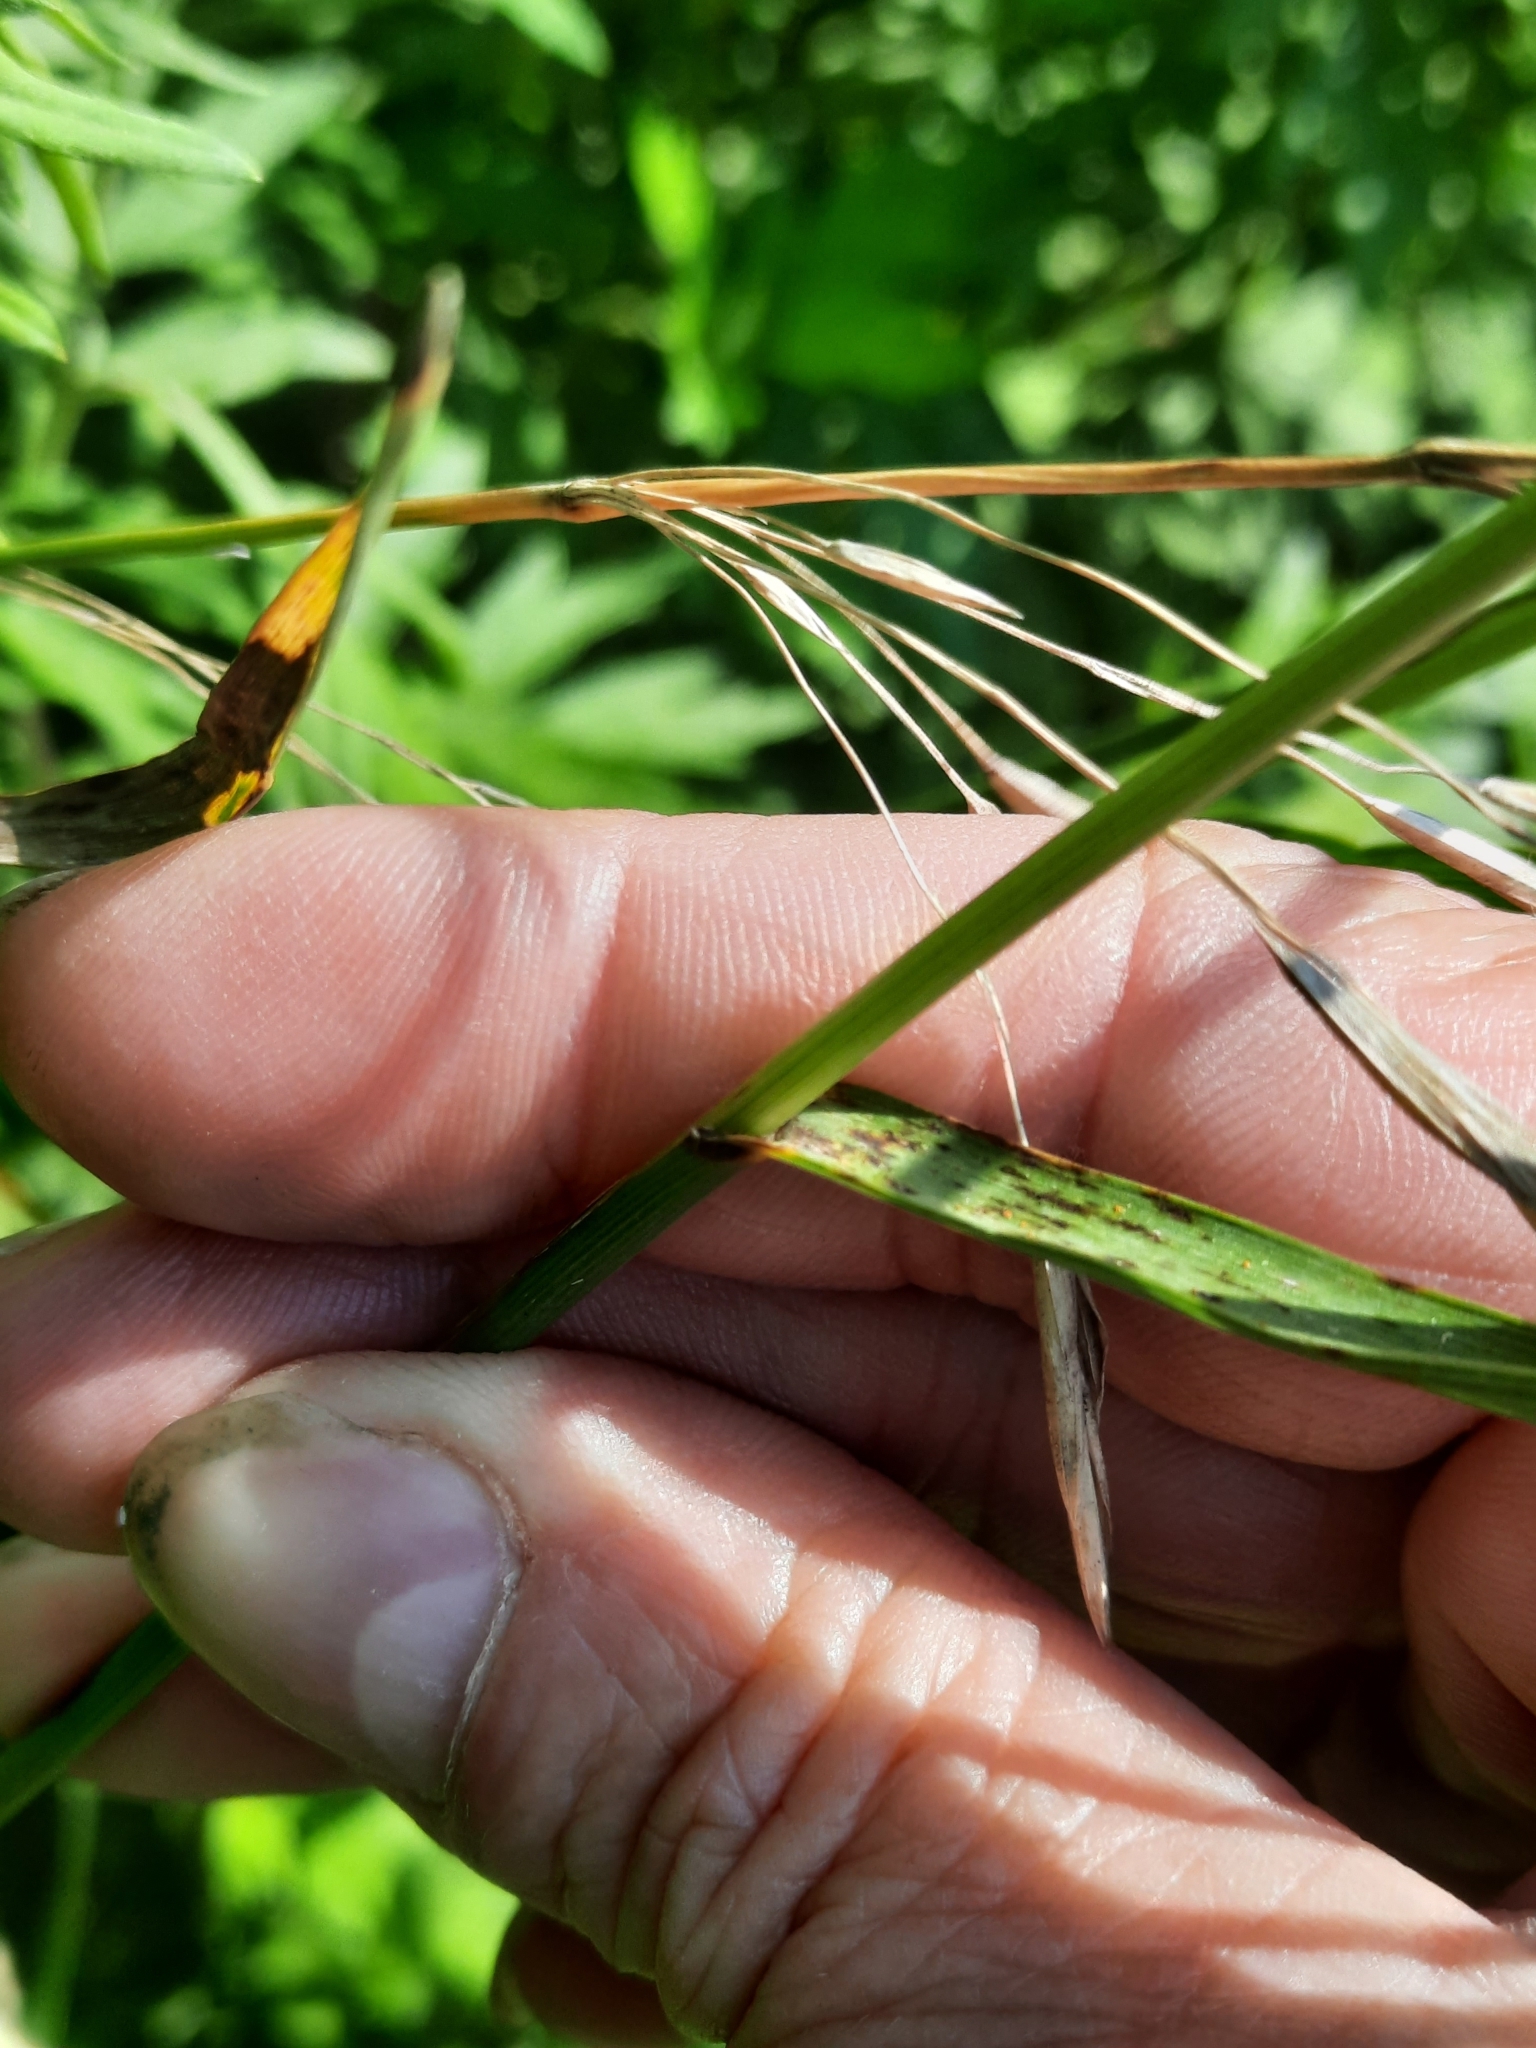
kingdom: Plantae
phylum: Tracheophyta
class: Liliopsida
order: Poales
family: Poaceae
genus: Bromus
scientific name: Bromus inermis
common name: Smooth brome
